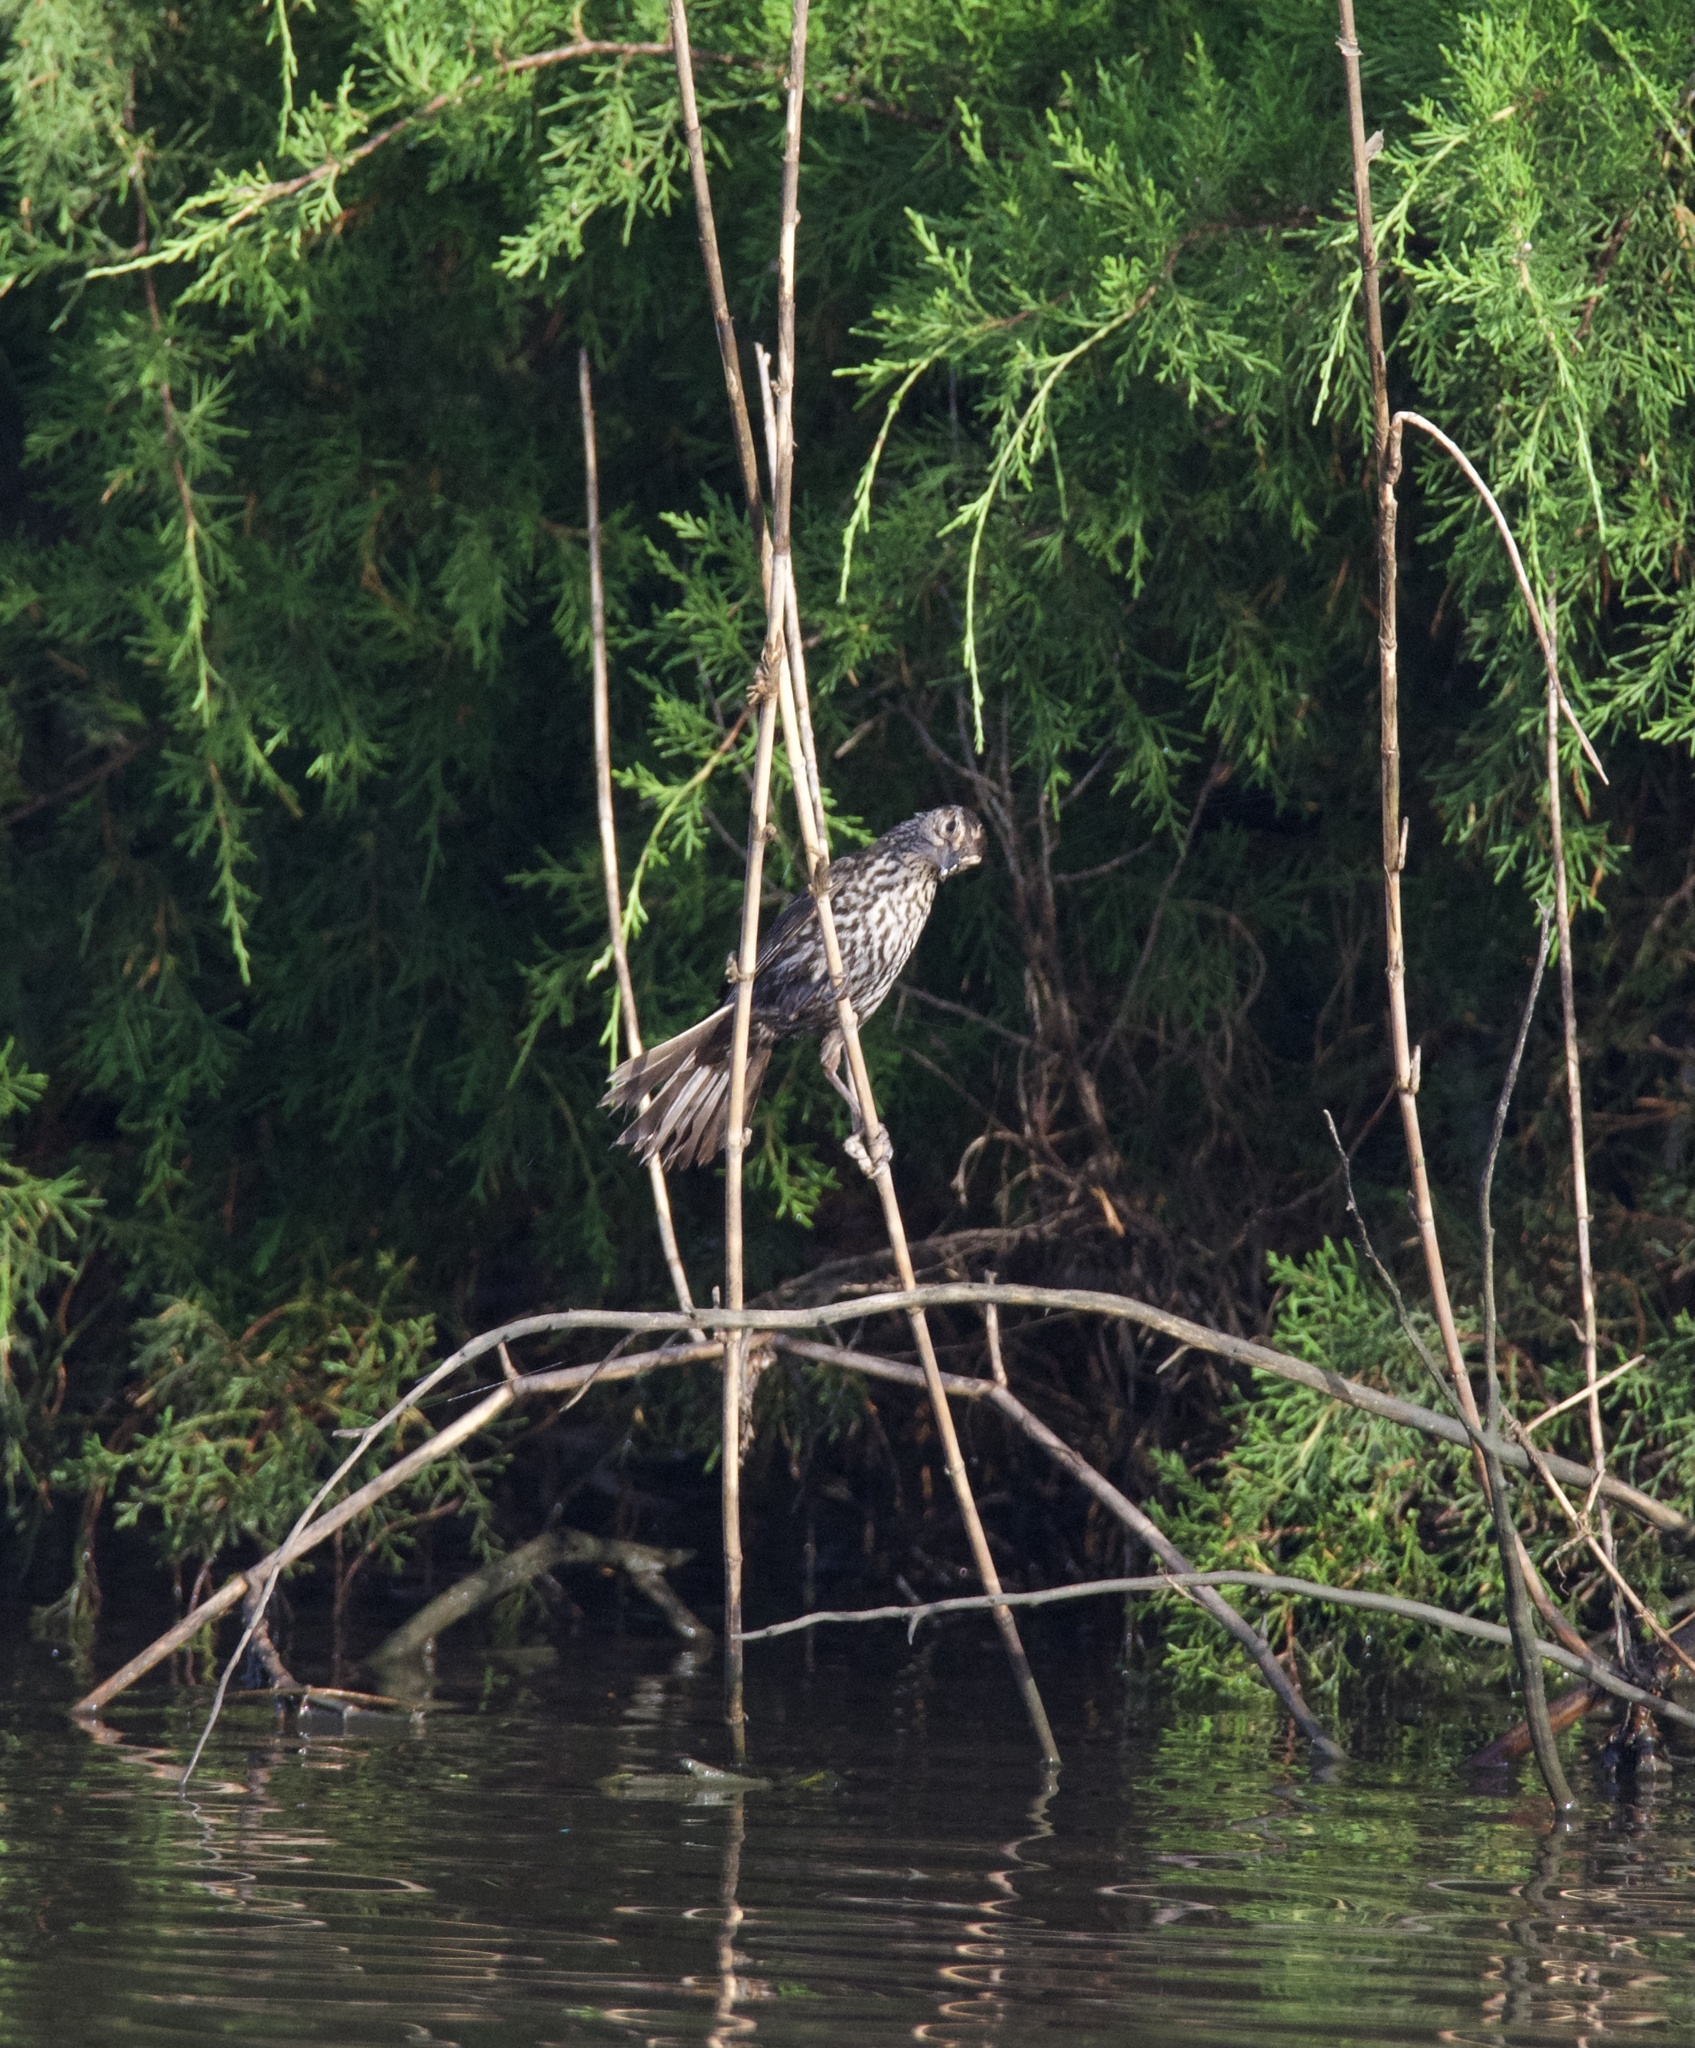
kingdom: Animalia
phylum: Chordata
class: Aves
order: Passeriformes
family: Icteridae
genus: Agelaius
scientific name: Agelaius phoeniceus
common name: Red-winged blackbird
